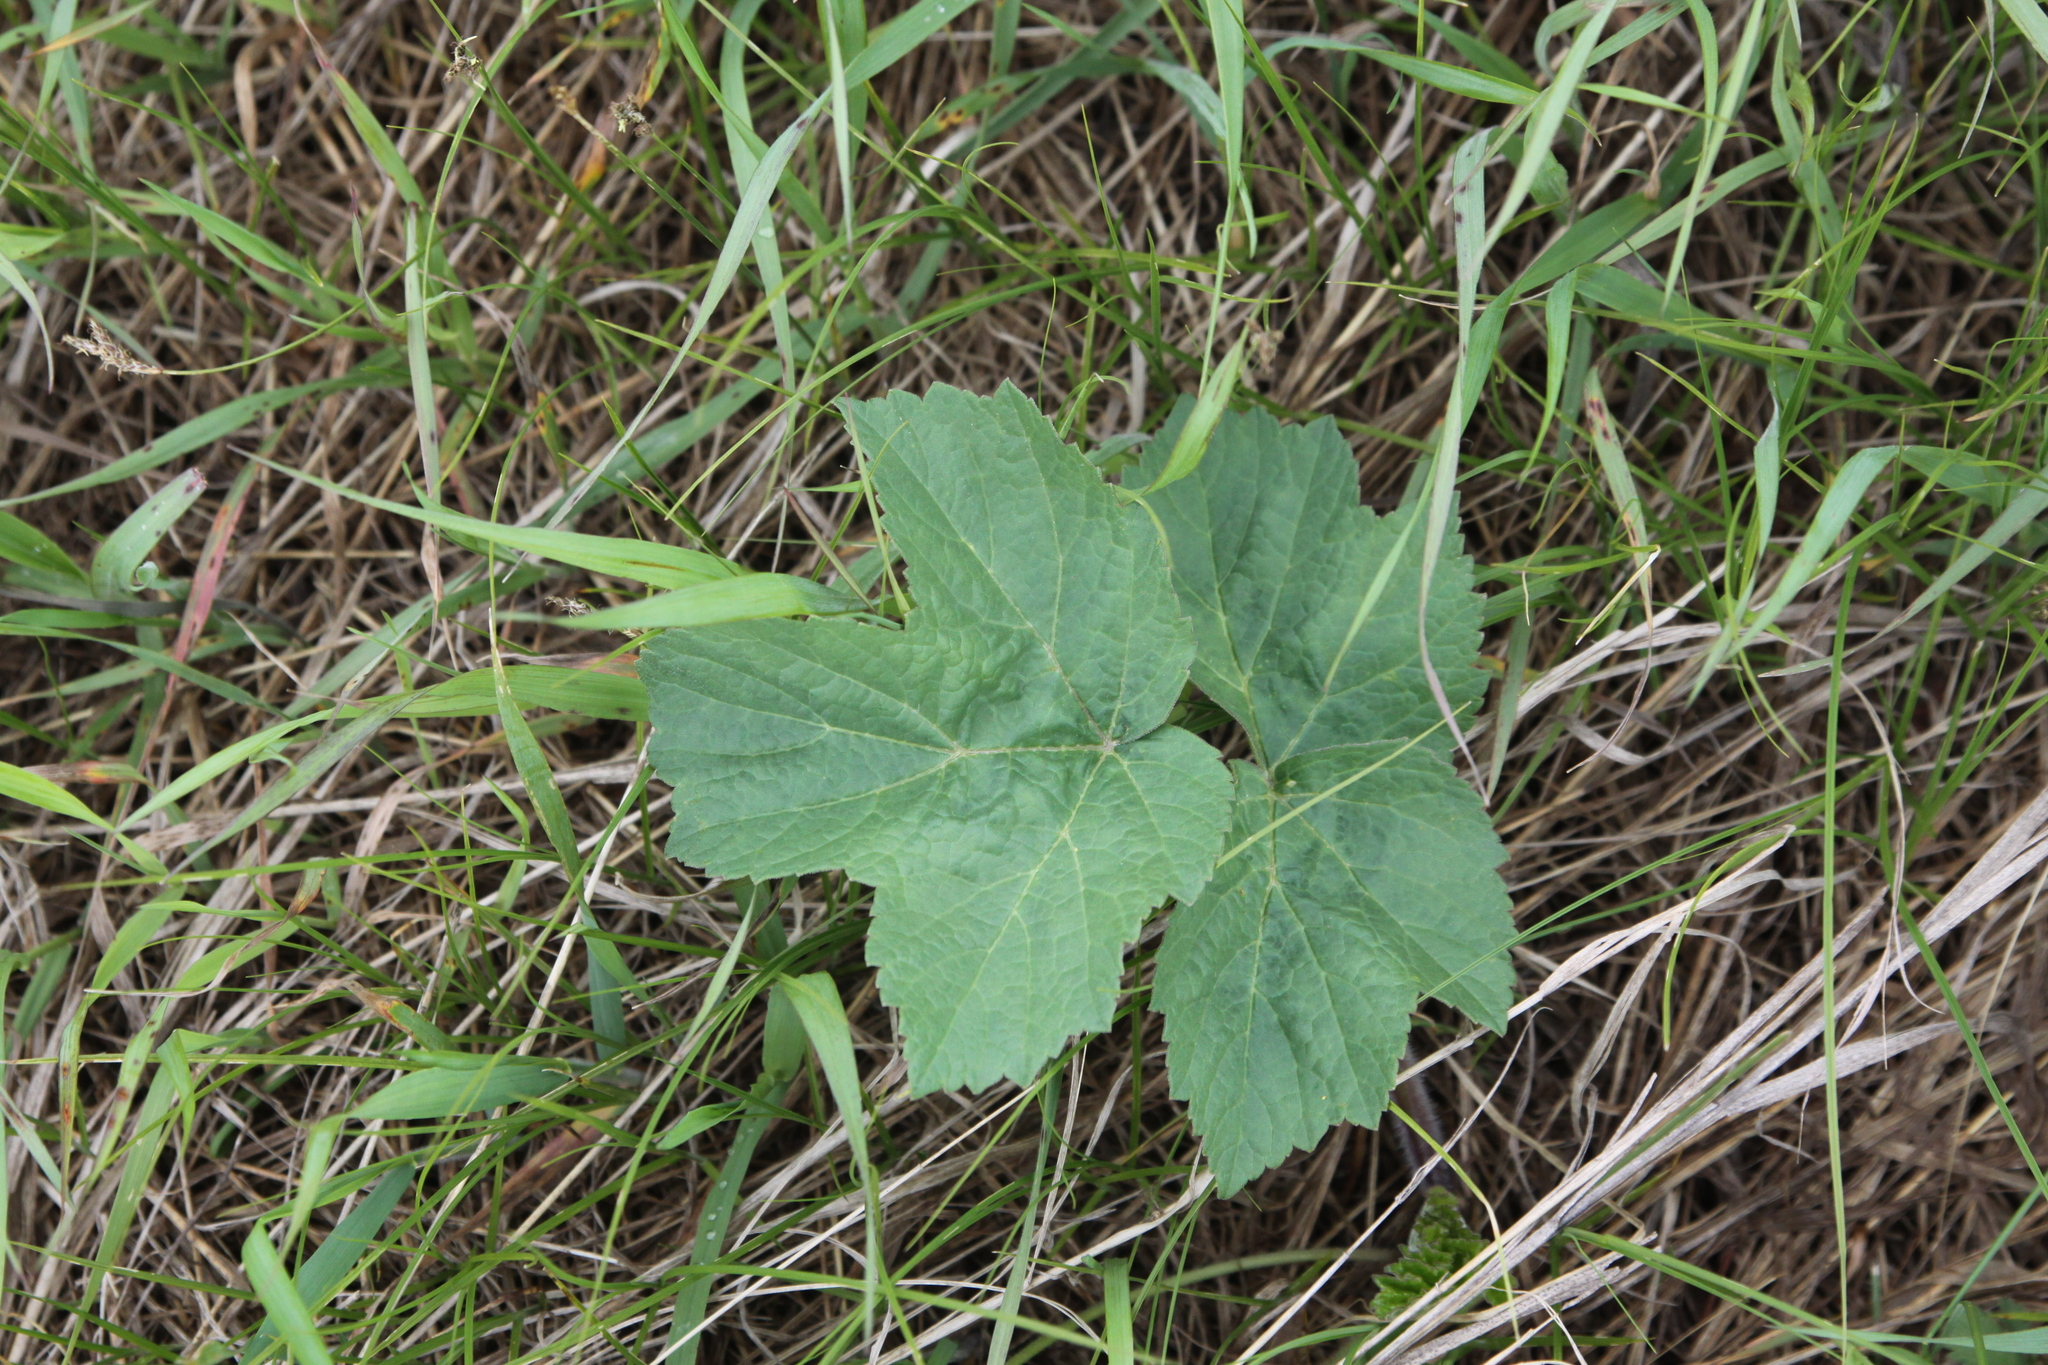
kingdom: Plantae
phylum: Tracheophyta
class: Magnoliopsida
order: Apiales
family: Apiaceae
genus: Heracleum
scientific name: Heracleum sphondylium
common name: Hogweed
